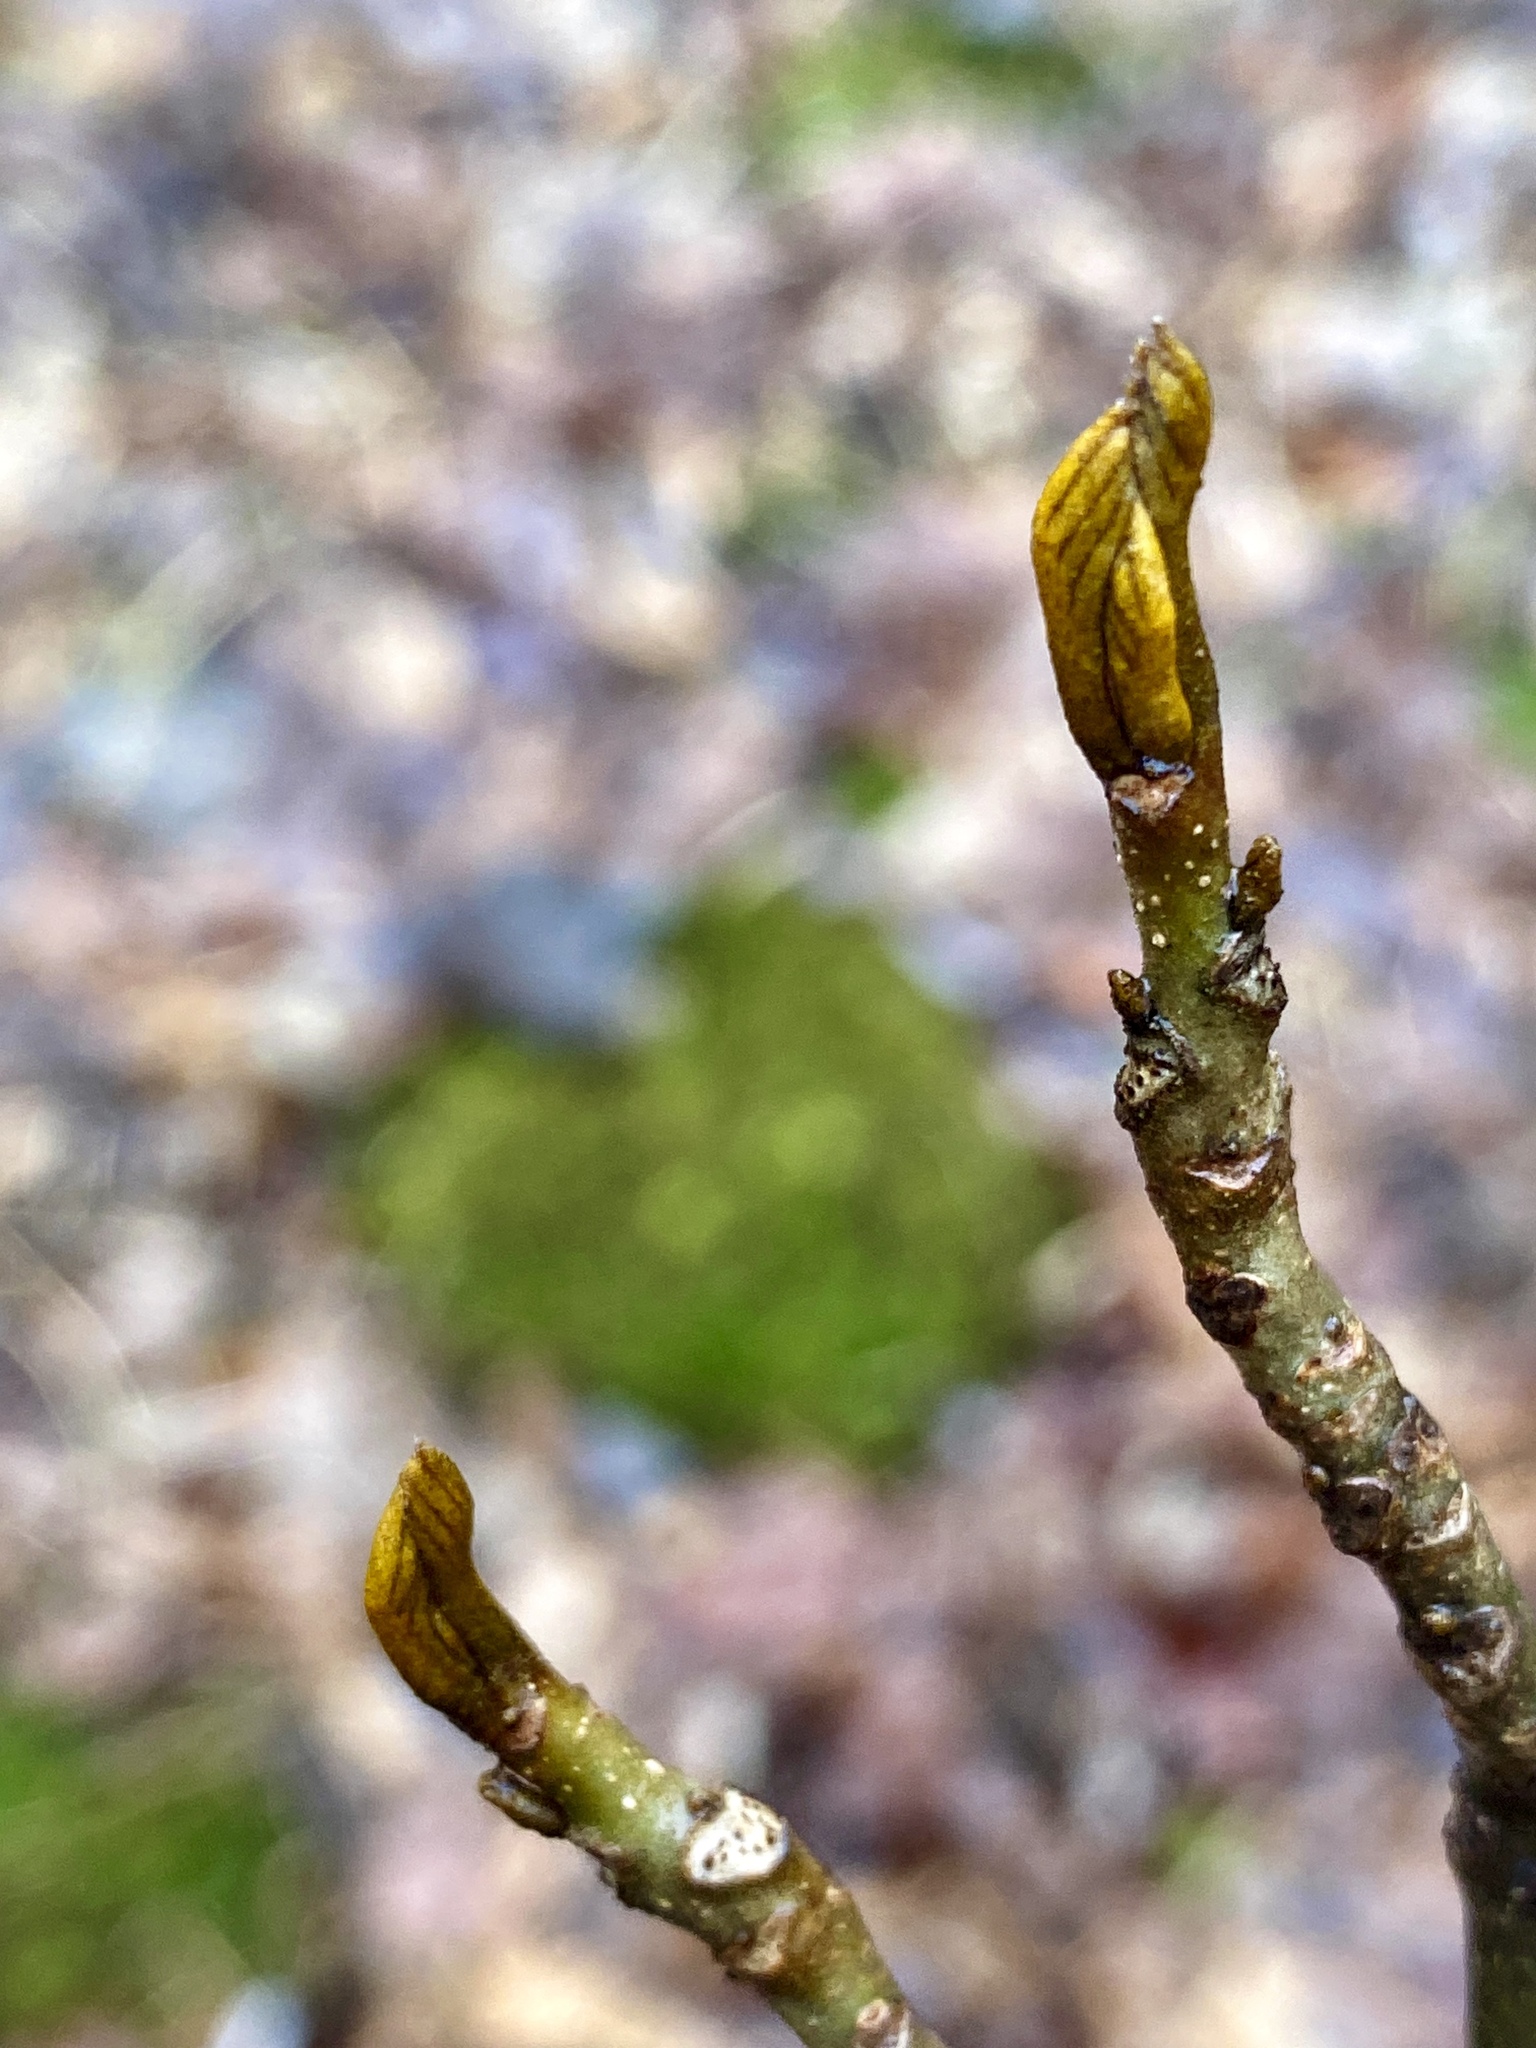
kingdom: Plantae
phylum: Tracheophyta
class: Magnoliopsida
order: Fagales
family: Juglandaceae
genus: Carya
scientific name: Carya cordiformis
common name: Bitternut hickory
